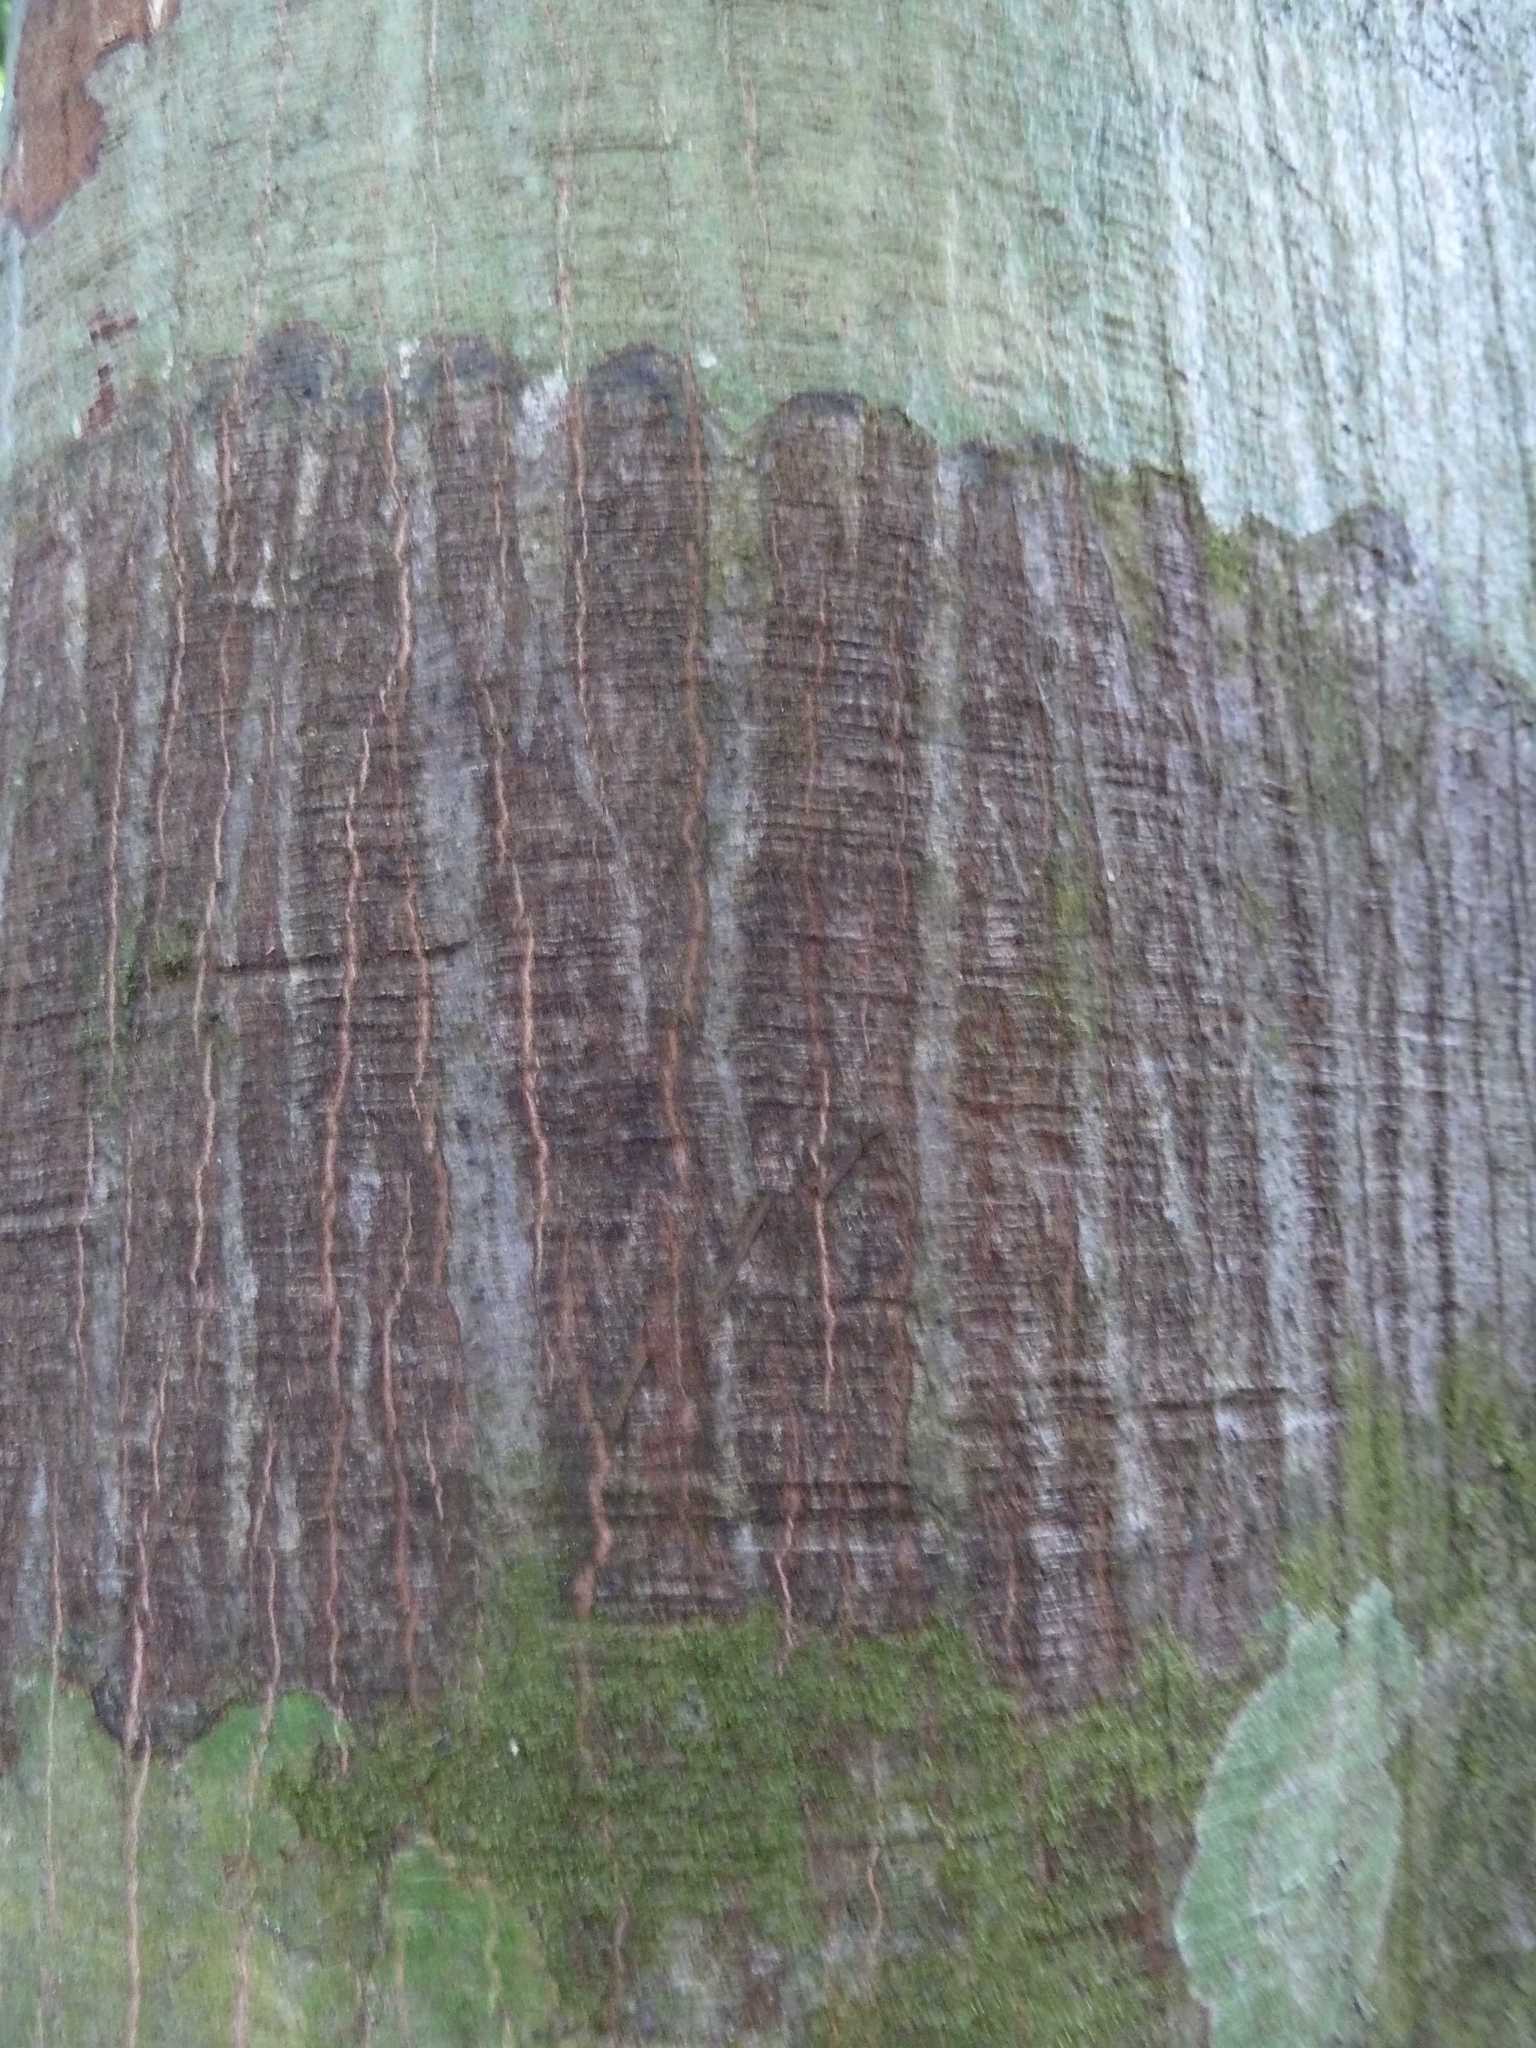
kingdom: Plantae
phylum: Tracheophyta
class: Magnoliopsida
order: Celastrales
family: Lepidobotryaceae
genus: Ruptiliocarpon
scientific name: Ruptiliocarpon caracolito
